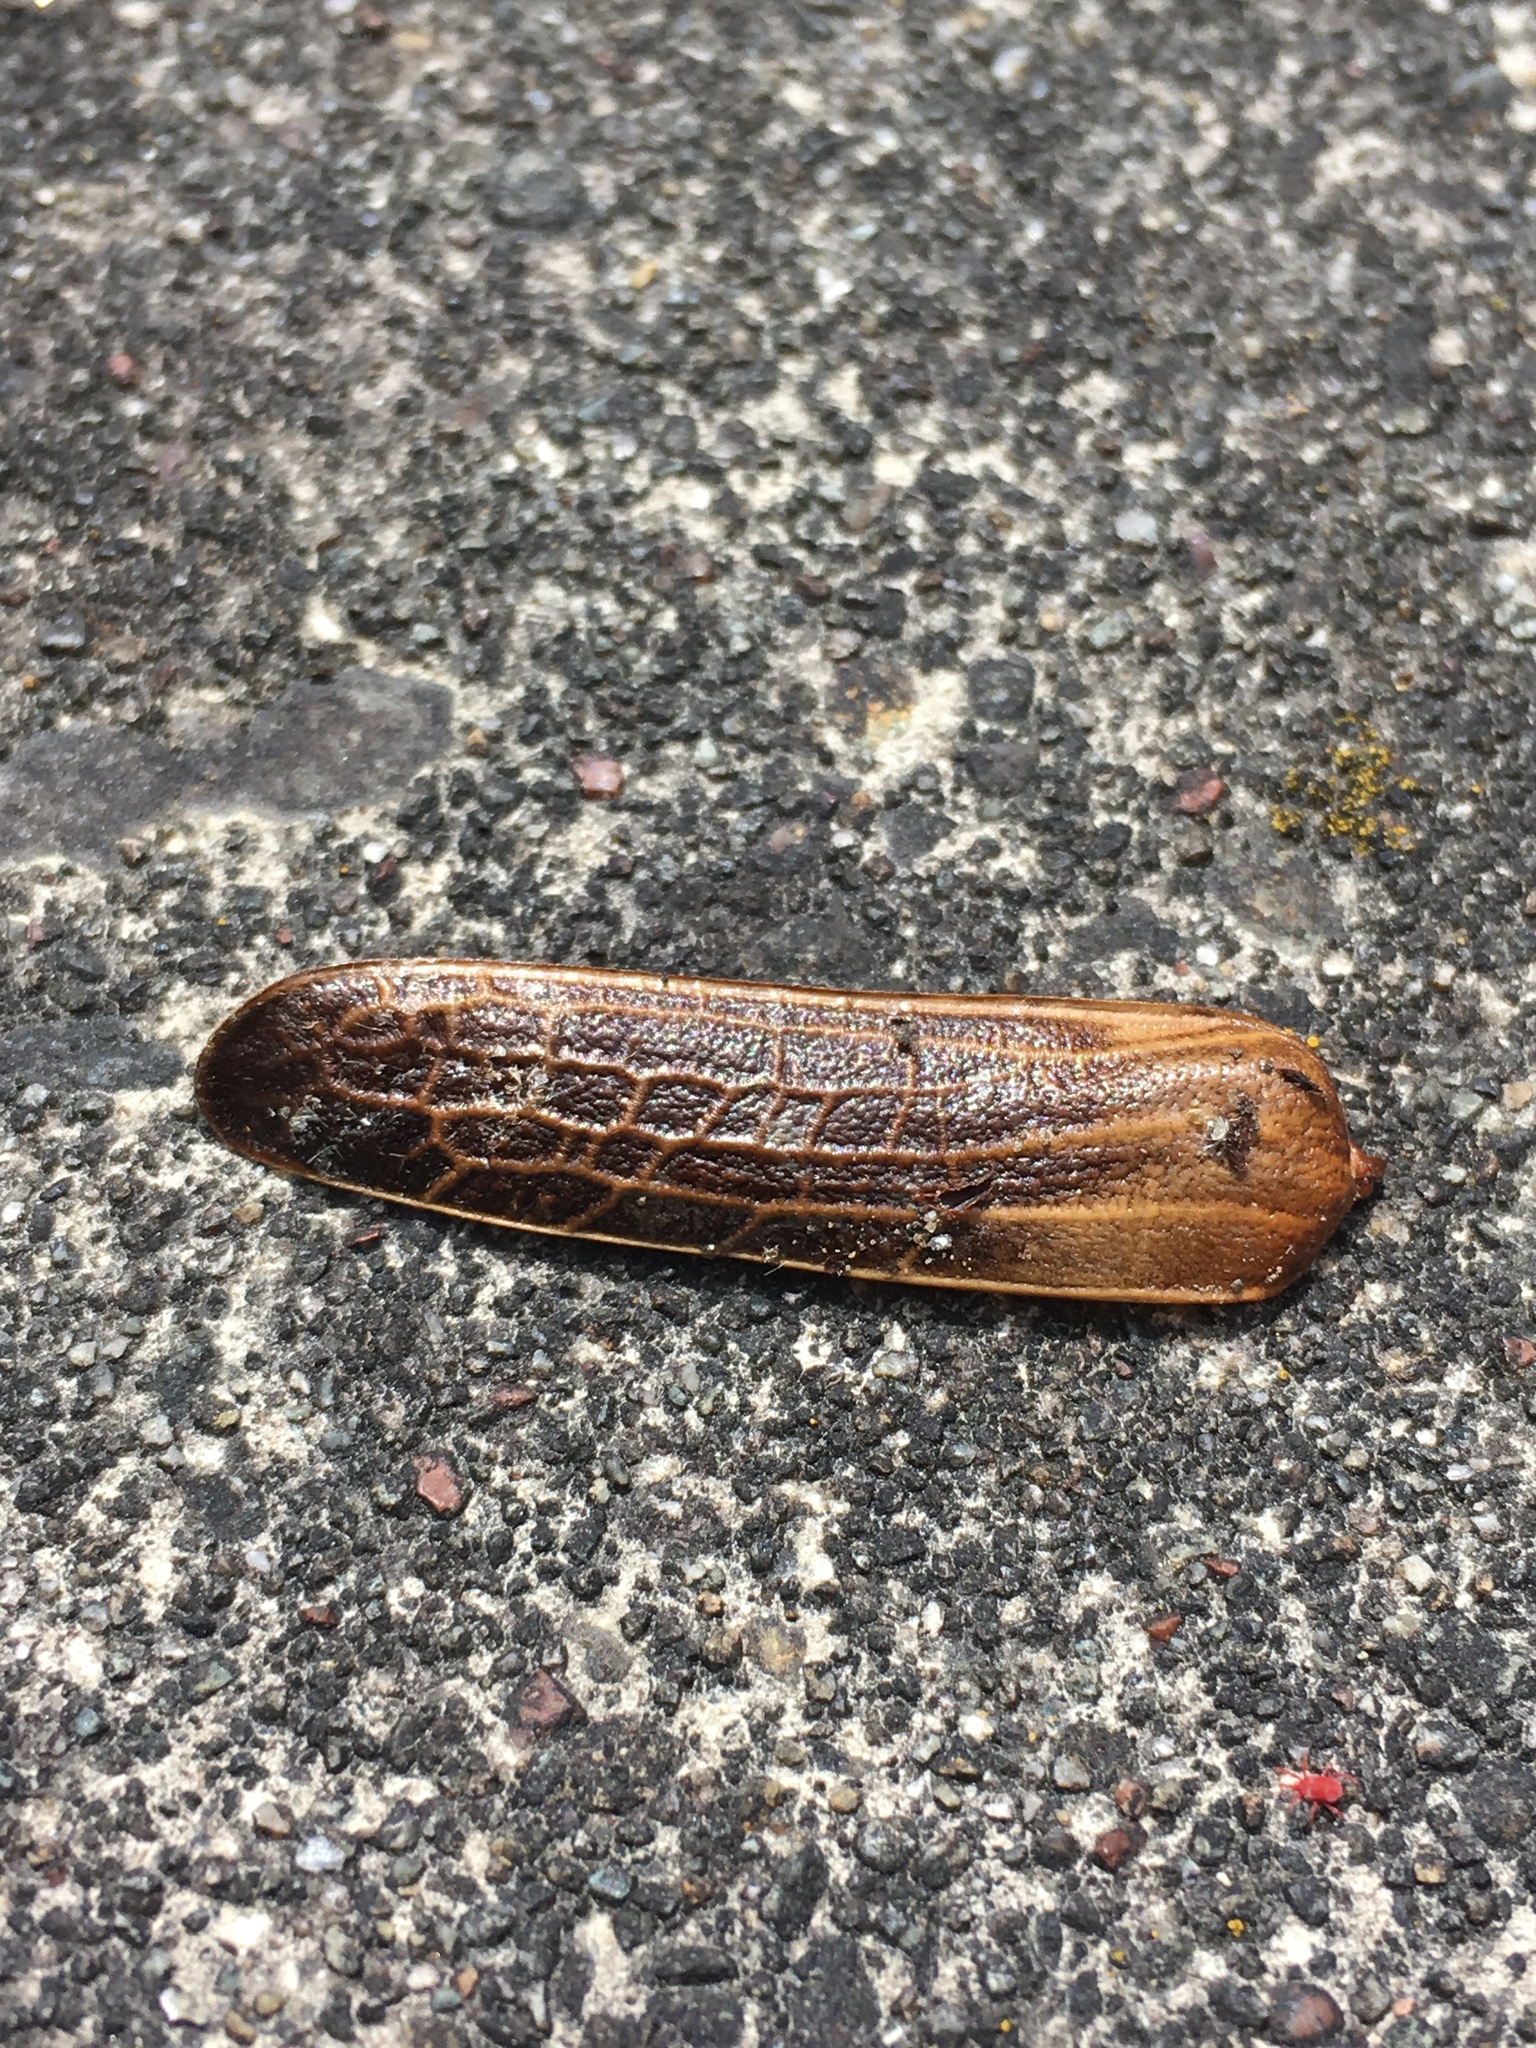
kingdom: Animalia
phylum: Arthropoda
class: Insecta
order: Coleoptera
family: Cerambycidae
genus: Prionoplus
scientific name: Prionoplus reticularis
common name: Huhu beetle
